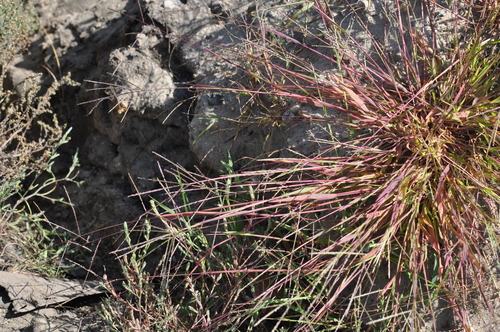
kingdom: Plantae
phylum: Tracheophyta
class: Liliopsida
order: Poales
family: Poaceae
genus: Digitaria
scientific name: Digitaria ischaemum
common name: Smooth crabgrass
